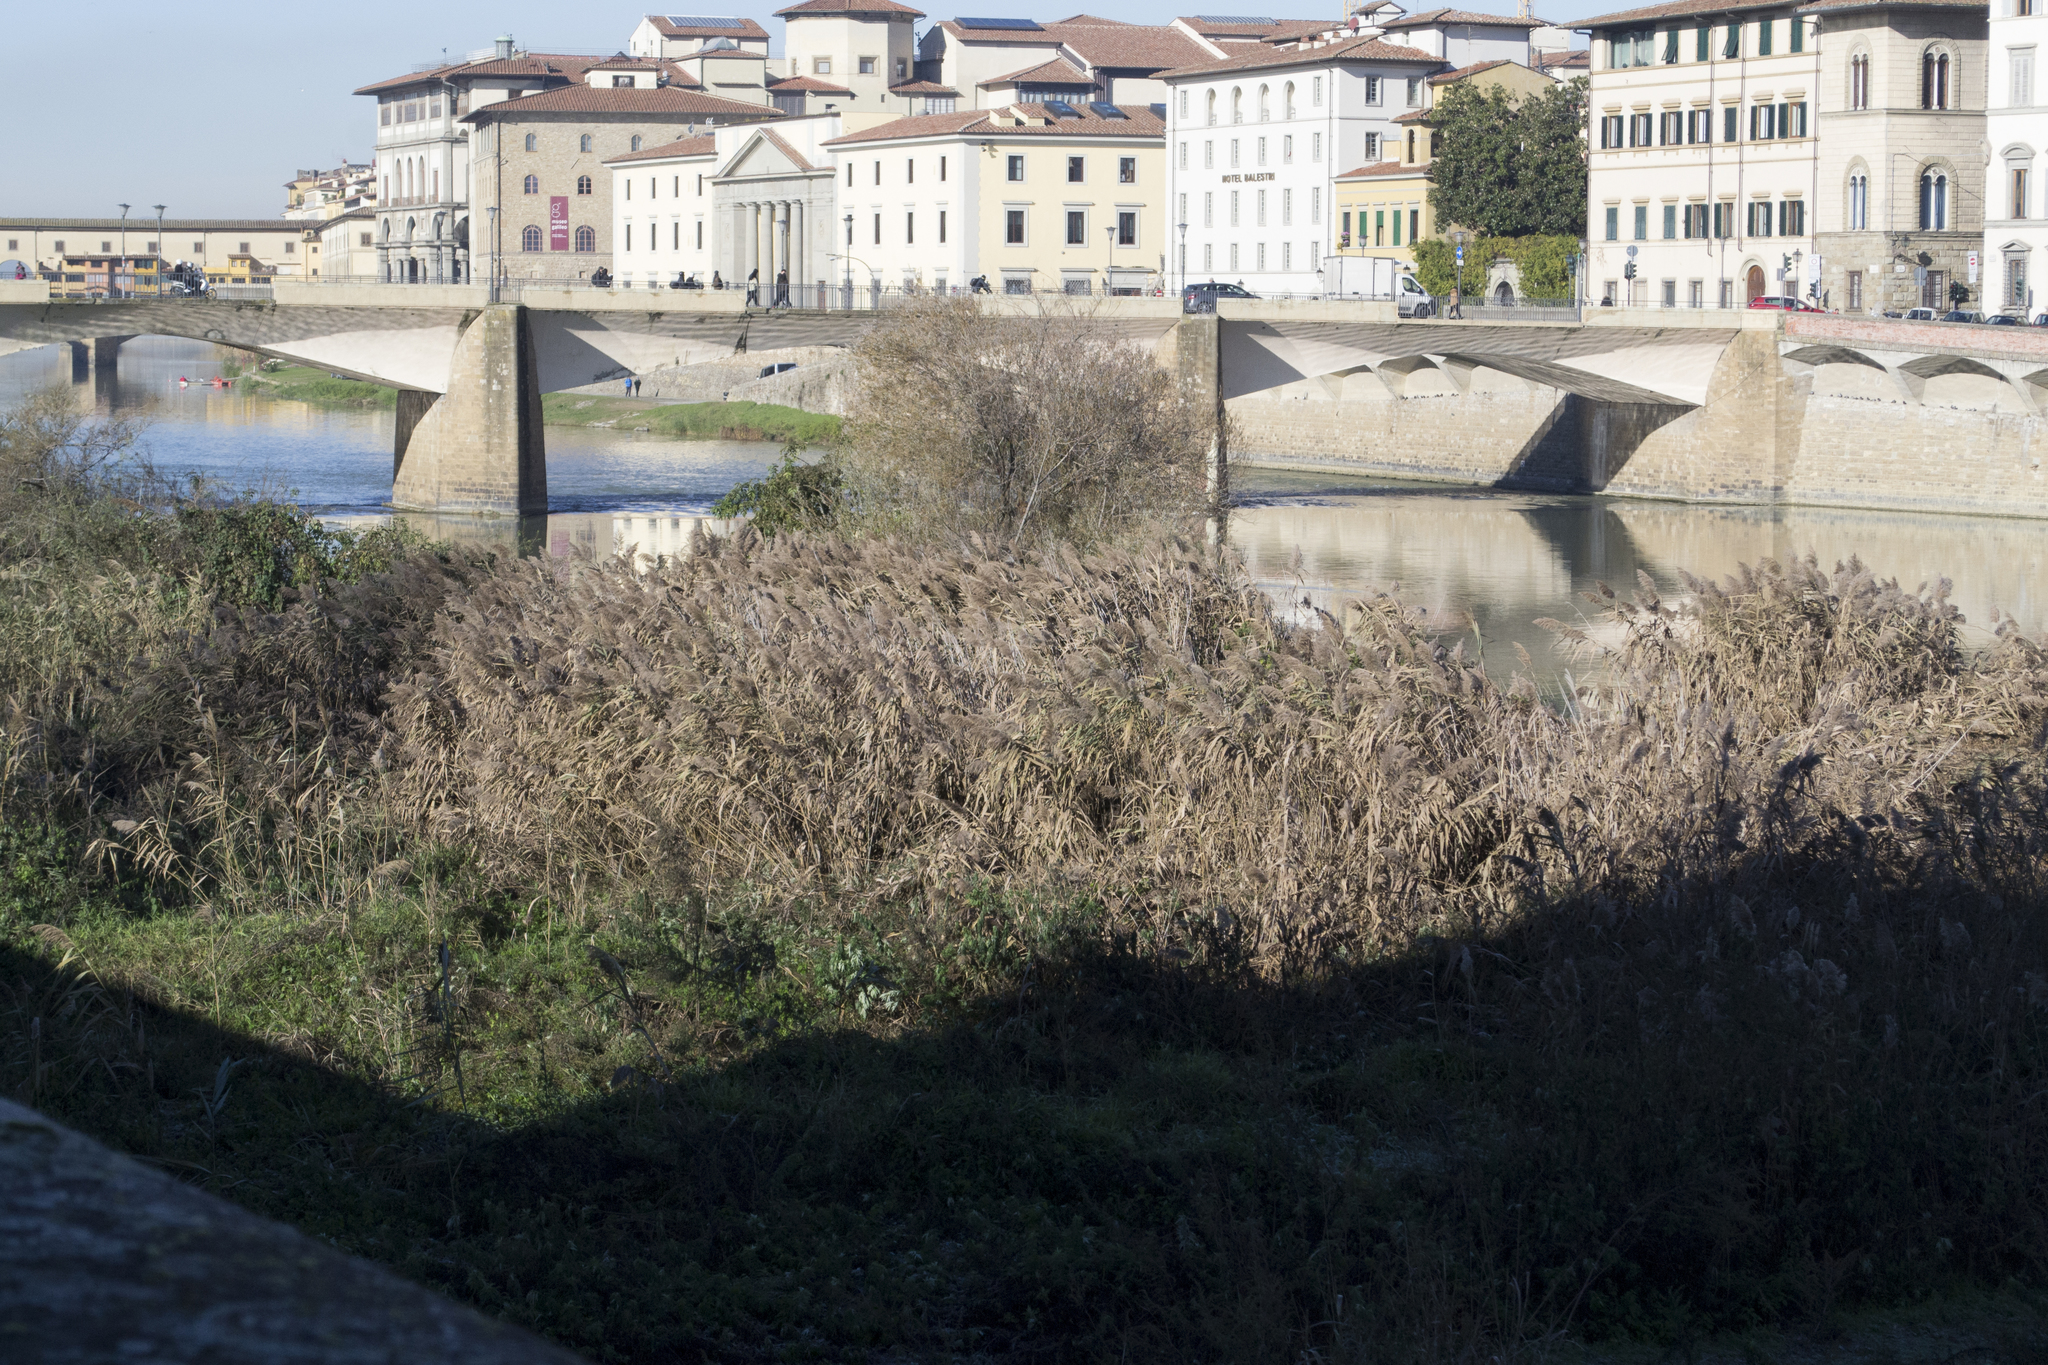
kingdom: Plantae
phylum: Tracheophyta
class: Liliopsida
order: Poales
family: Poaceae
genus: Phragmites
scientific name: Phragmites australis
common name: Common reed
